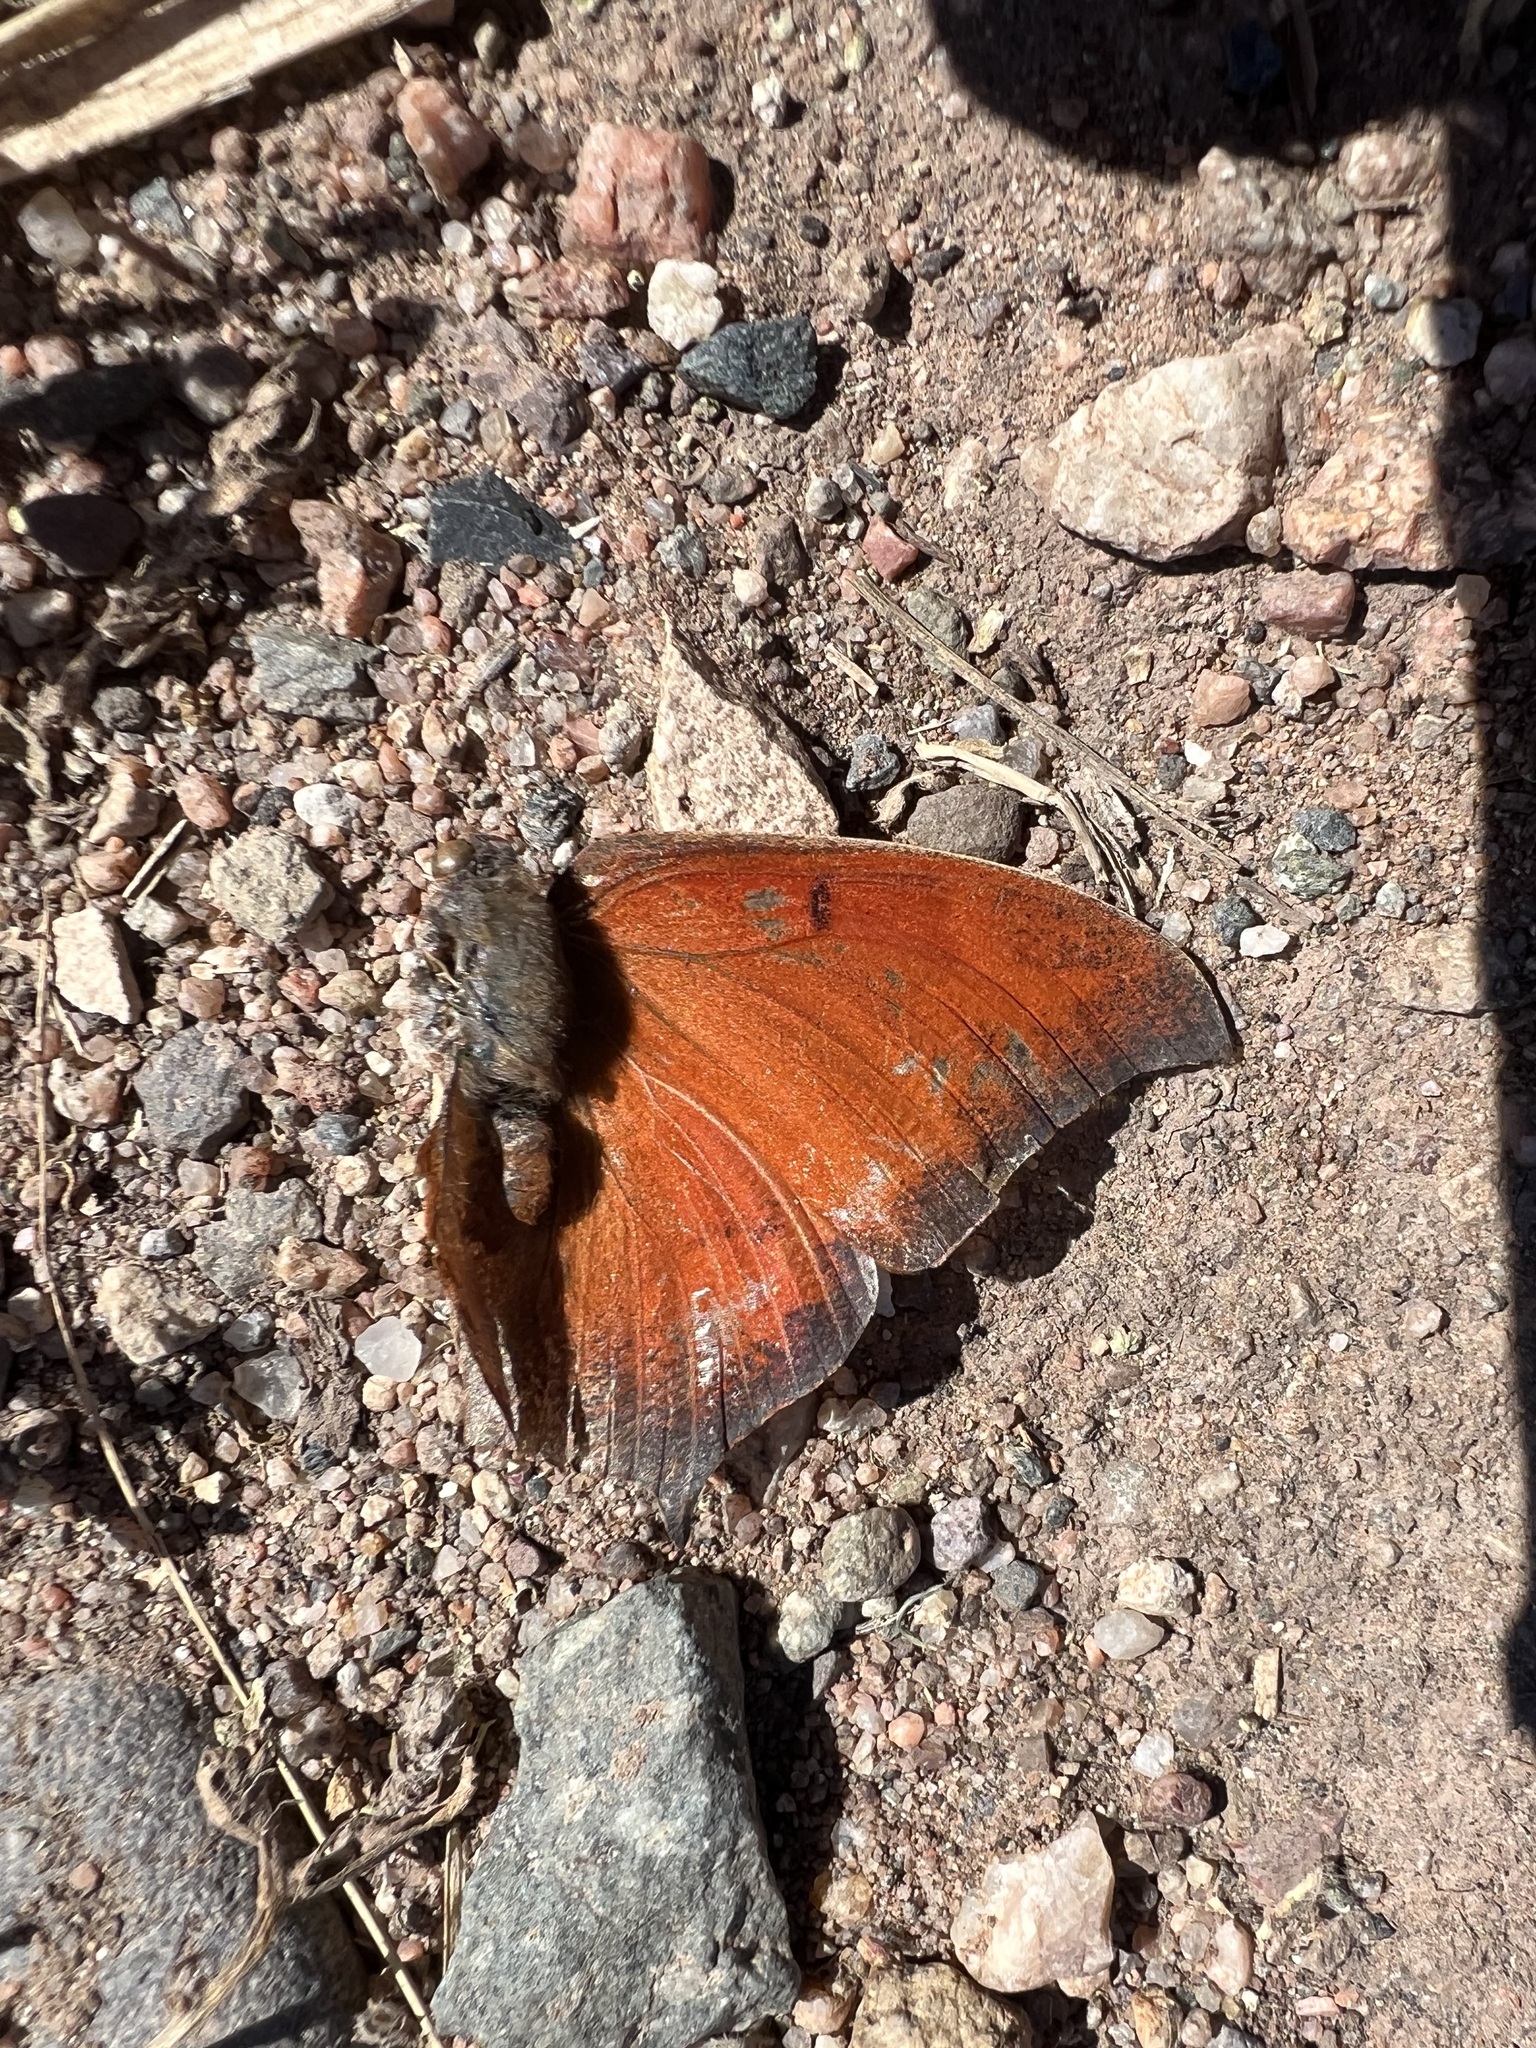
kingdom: Animalia
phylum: Arthropoda
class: Insecta
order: Lepidoptera
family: Nymphalidae
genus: Anaea
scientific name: Anaea andria
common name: Goatweed leafwing
